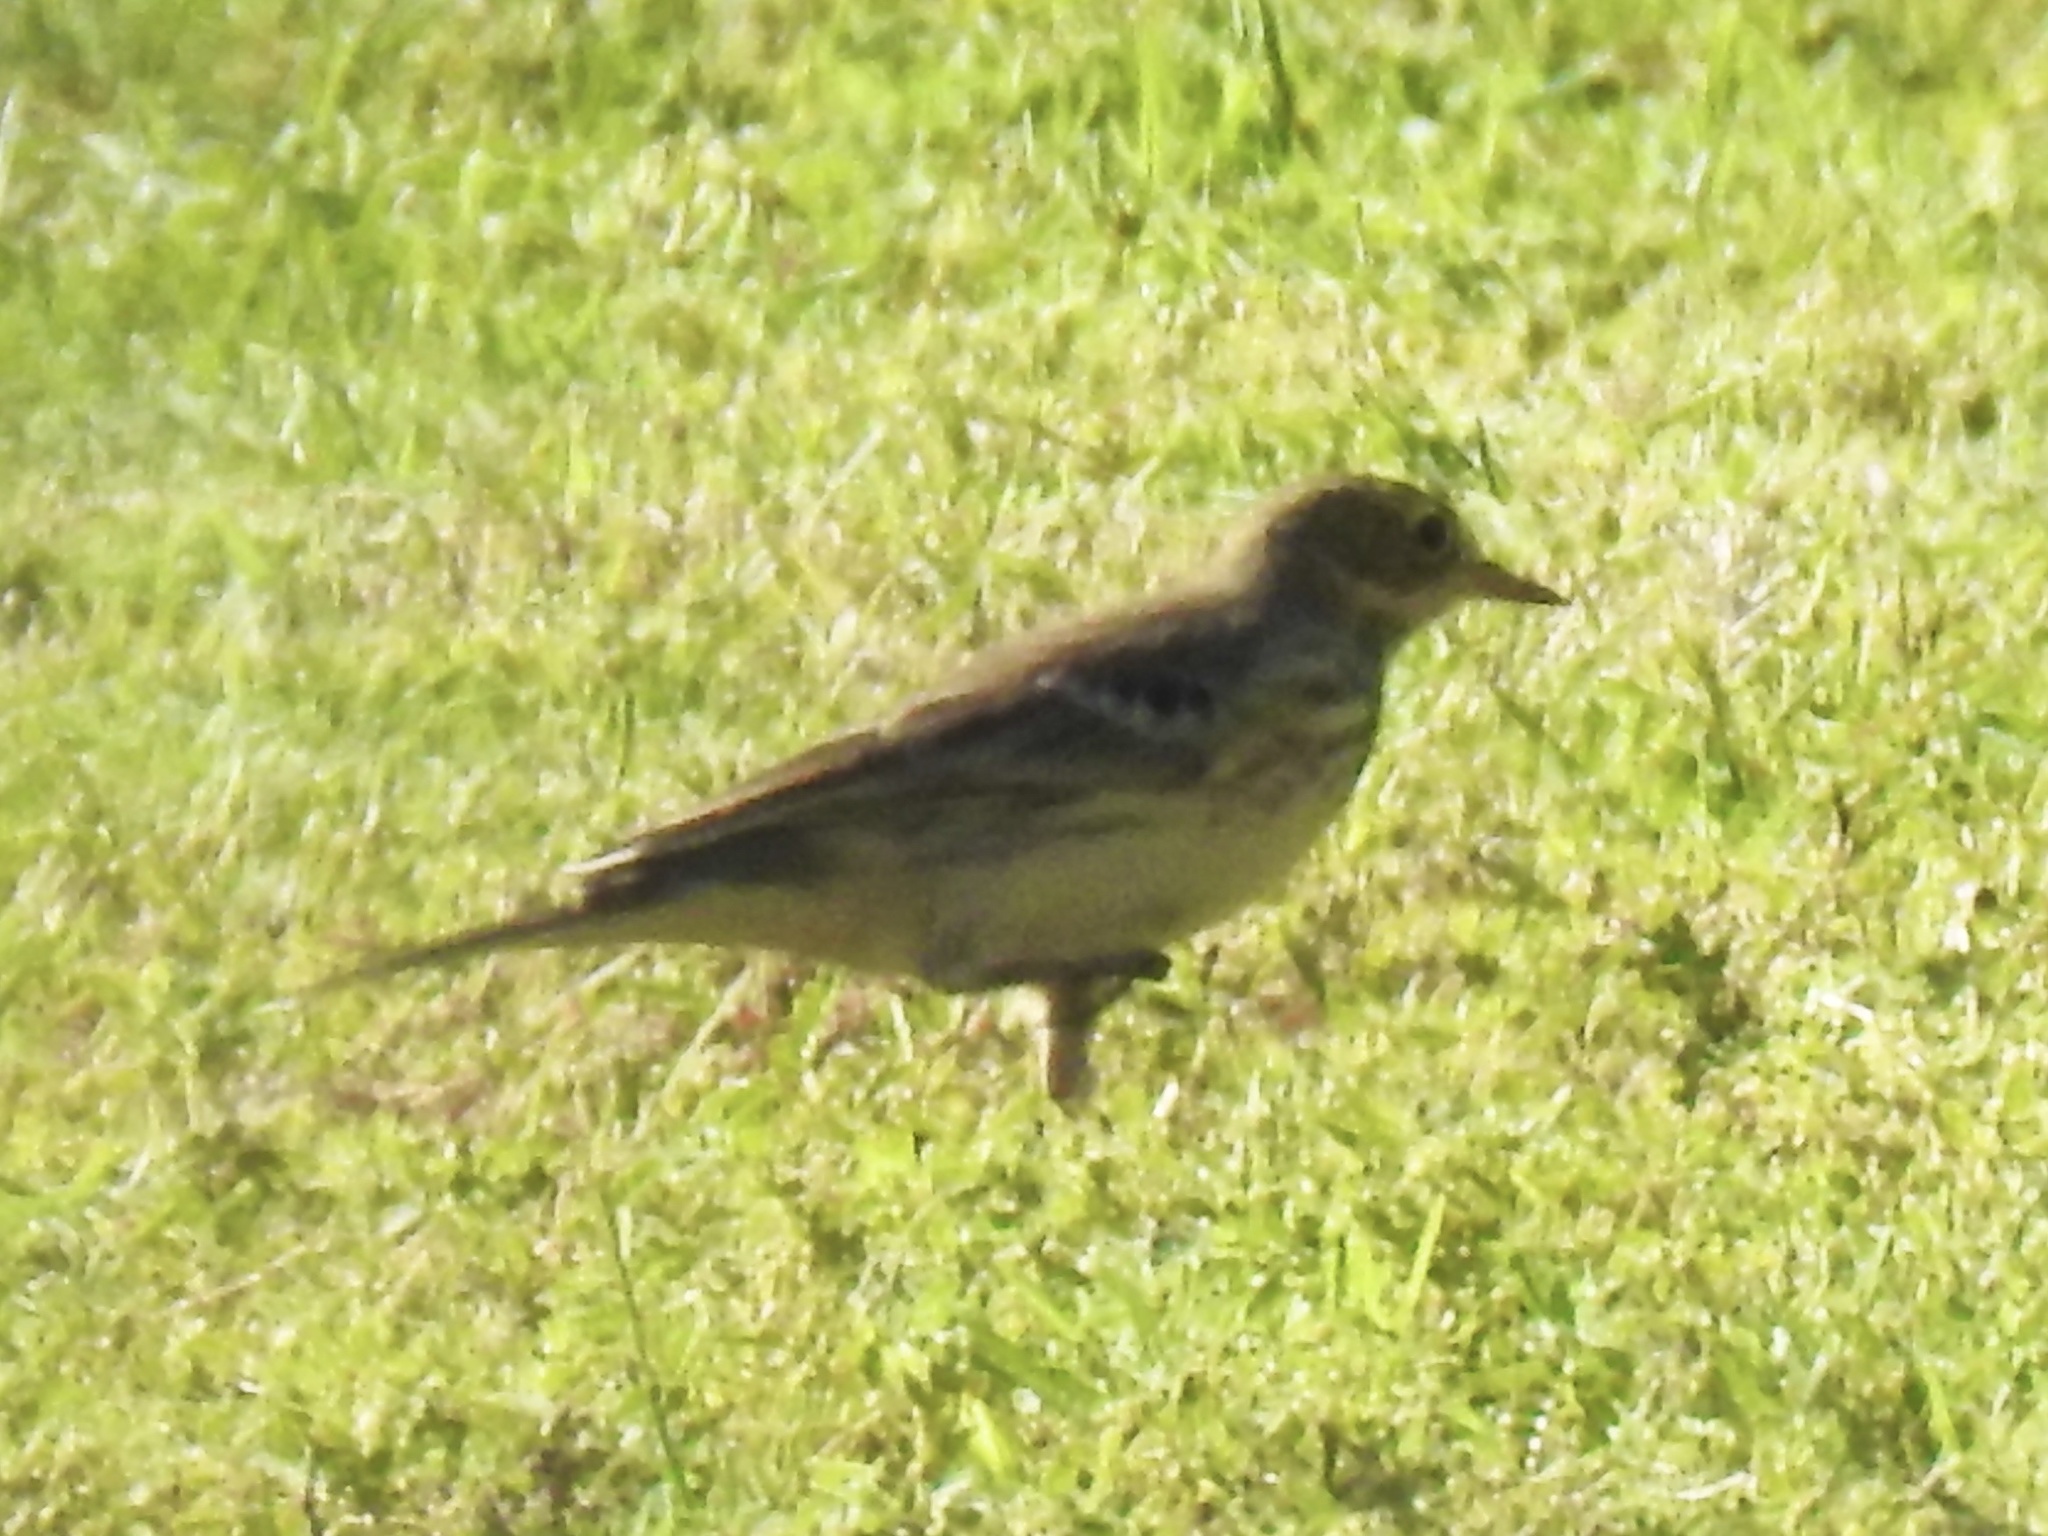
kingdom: Animalia
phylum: Chordata
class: Aves
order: Passeriformes
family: Motacillidae
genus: Anthus
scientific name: Anthus rubescens
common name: Buff-bellied pipit
